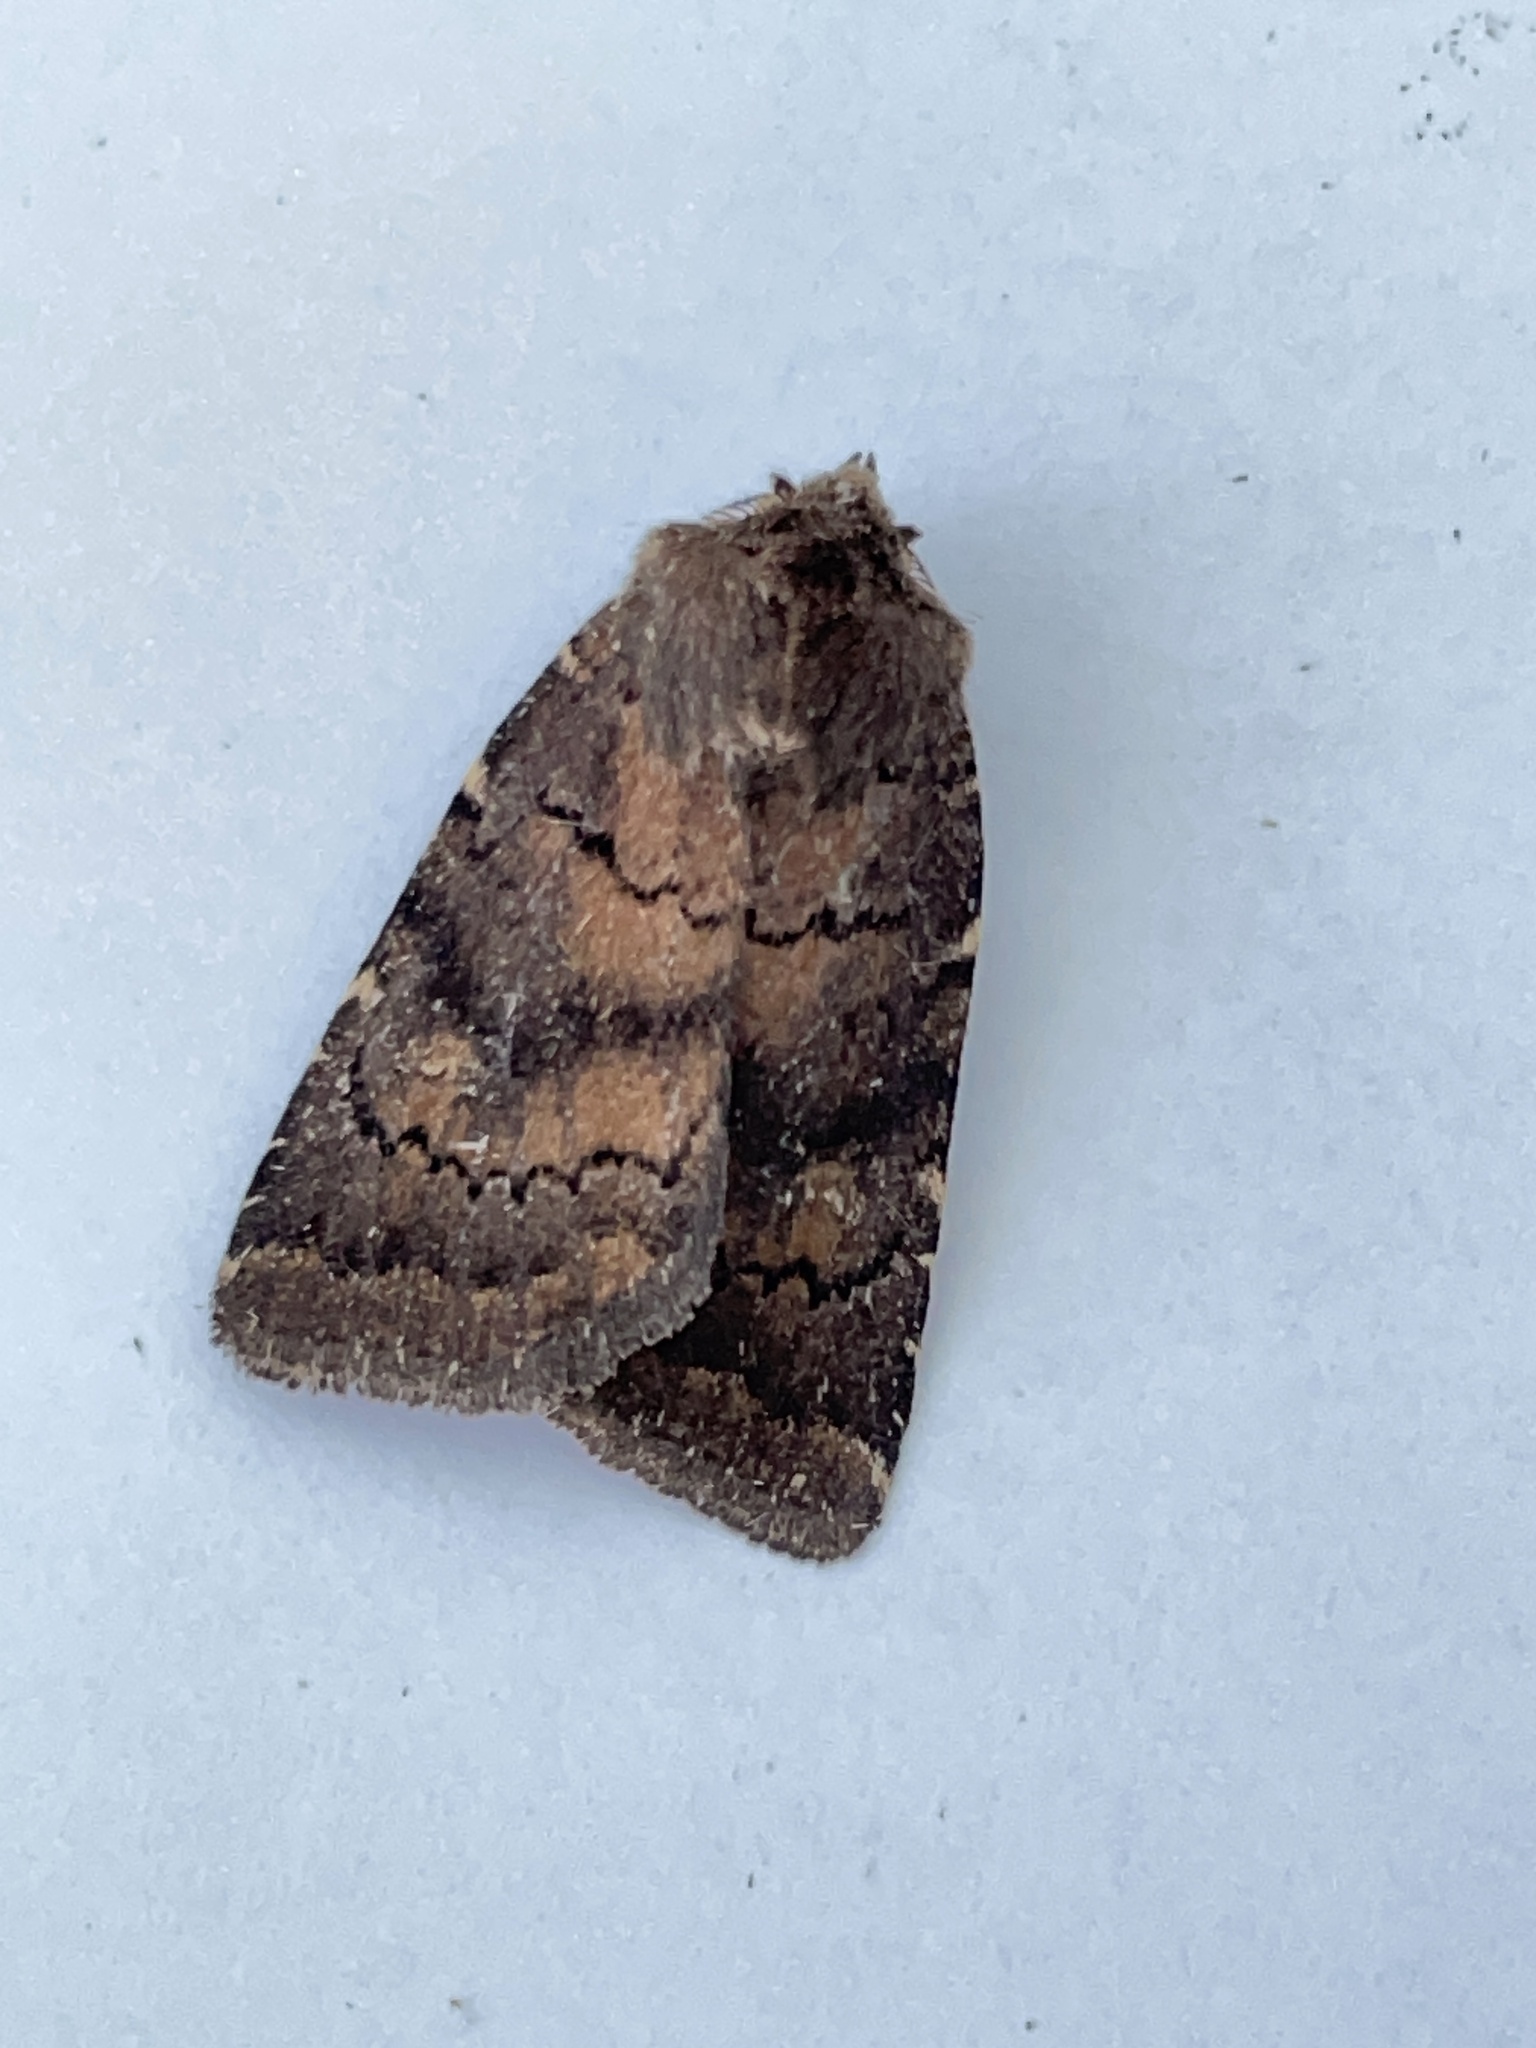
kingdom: Animalia
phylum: Arthropoda
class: Insecta
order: Lepidoptera
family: Noctuidae
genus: Charanyca
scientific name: Charanyca ferruginea
